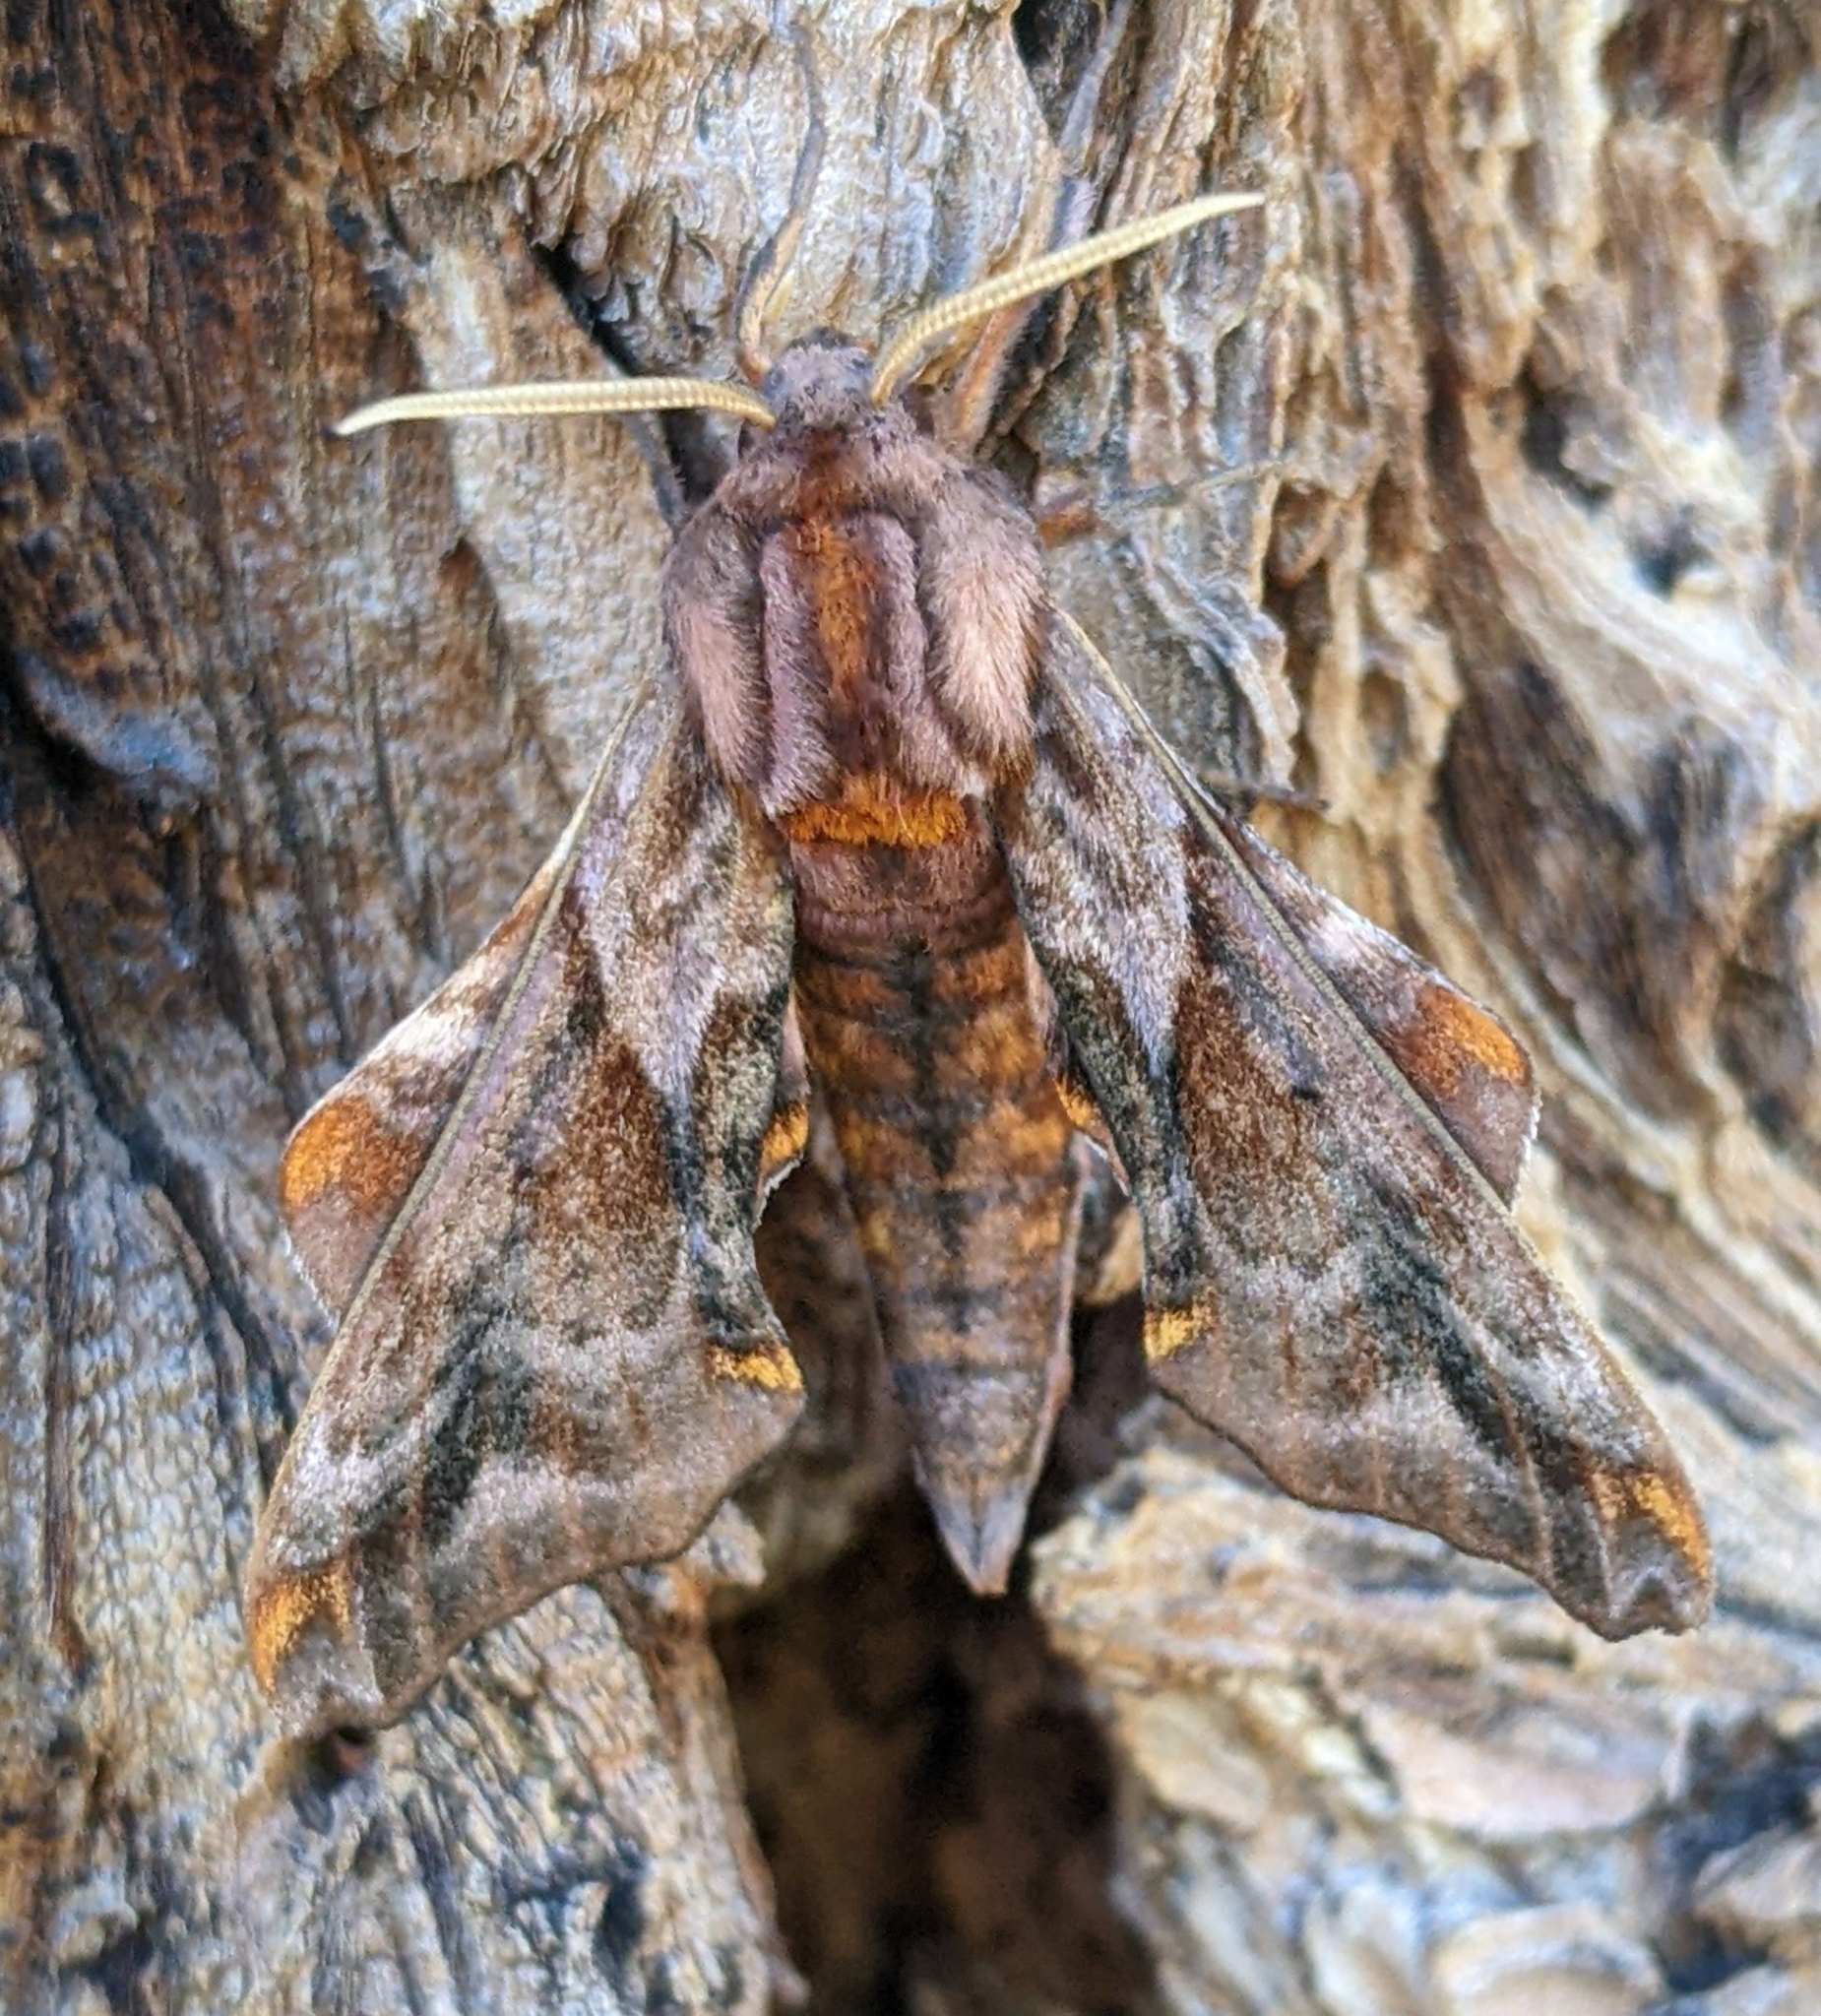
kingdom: Animalia
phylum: Arthropoda
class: Insecta
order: Lepidoptera
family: Sphingidae
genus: Paonias
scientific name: Paonias myops
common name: Small-eyed sphinx
